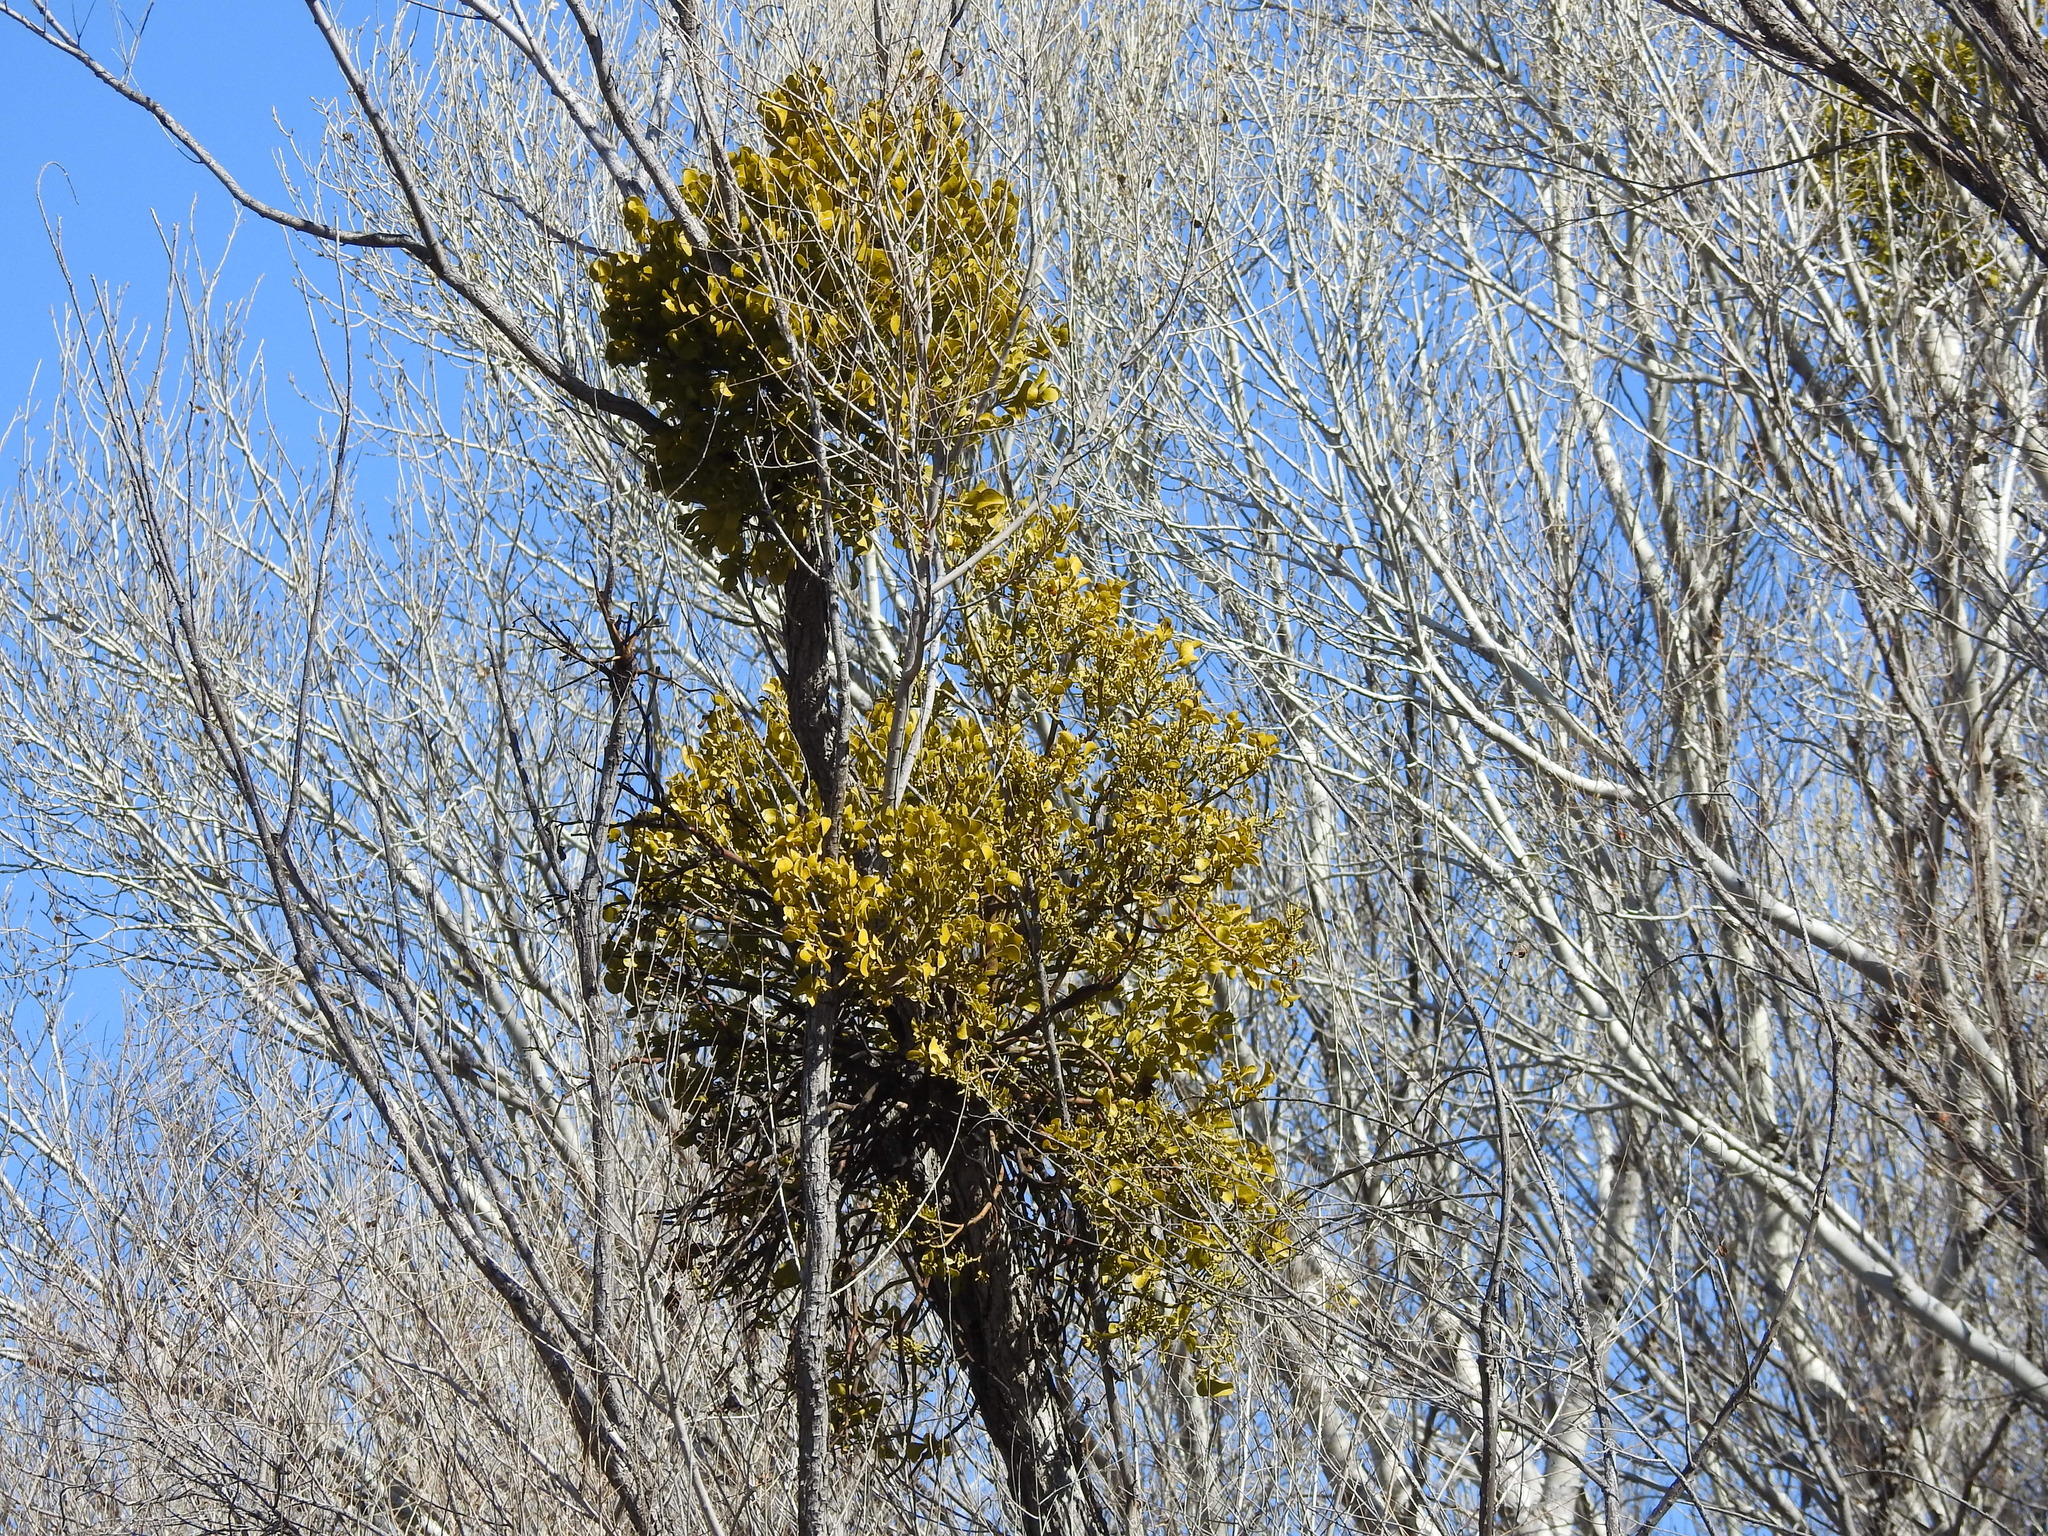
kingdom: Plantae
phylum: Tracheophyta
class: Magnoliopsida
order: Santalales
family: Viscaceae
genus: Phoradendron
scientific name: Phoradendron
